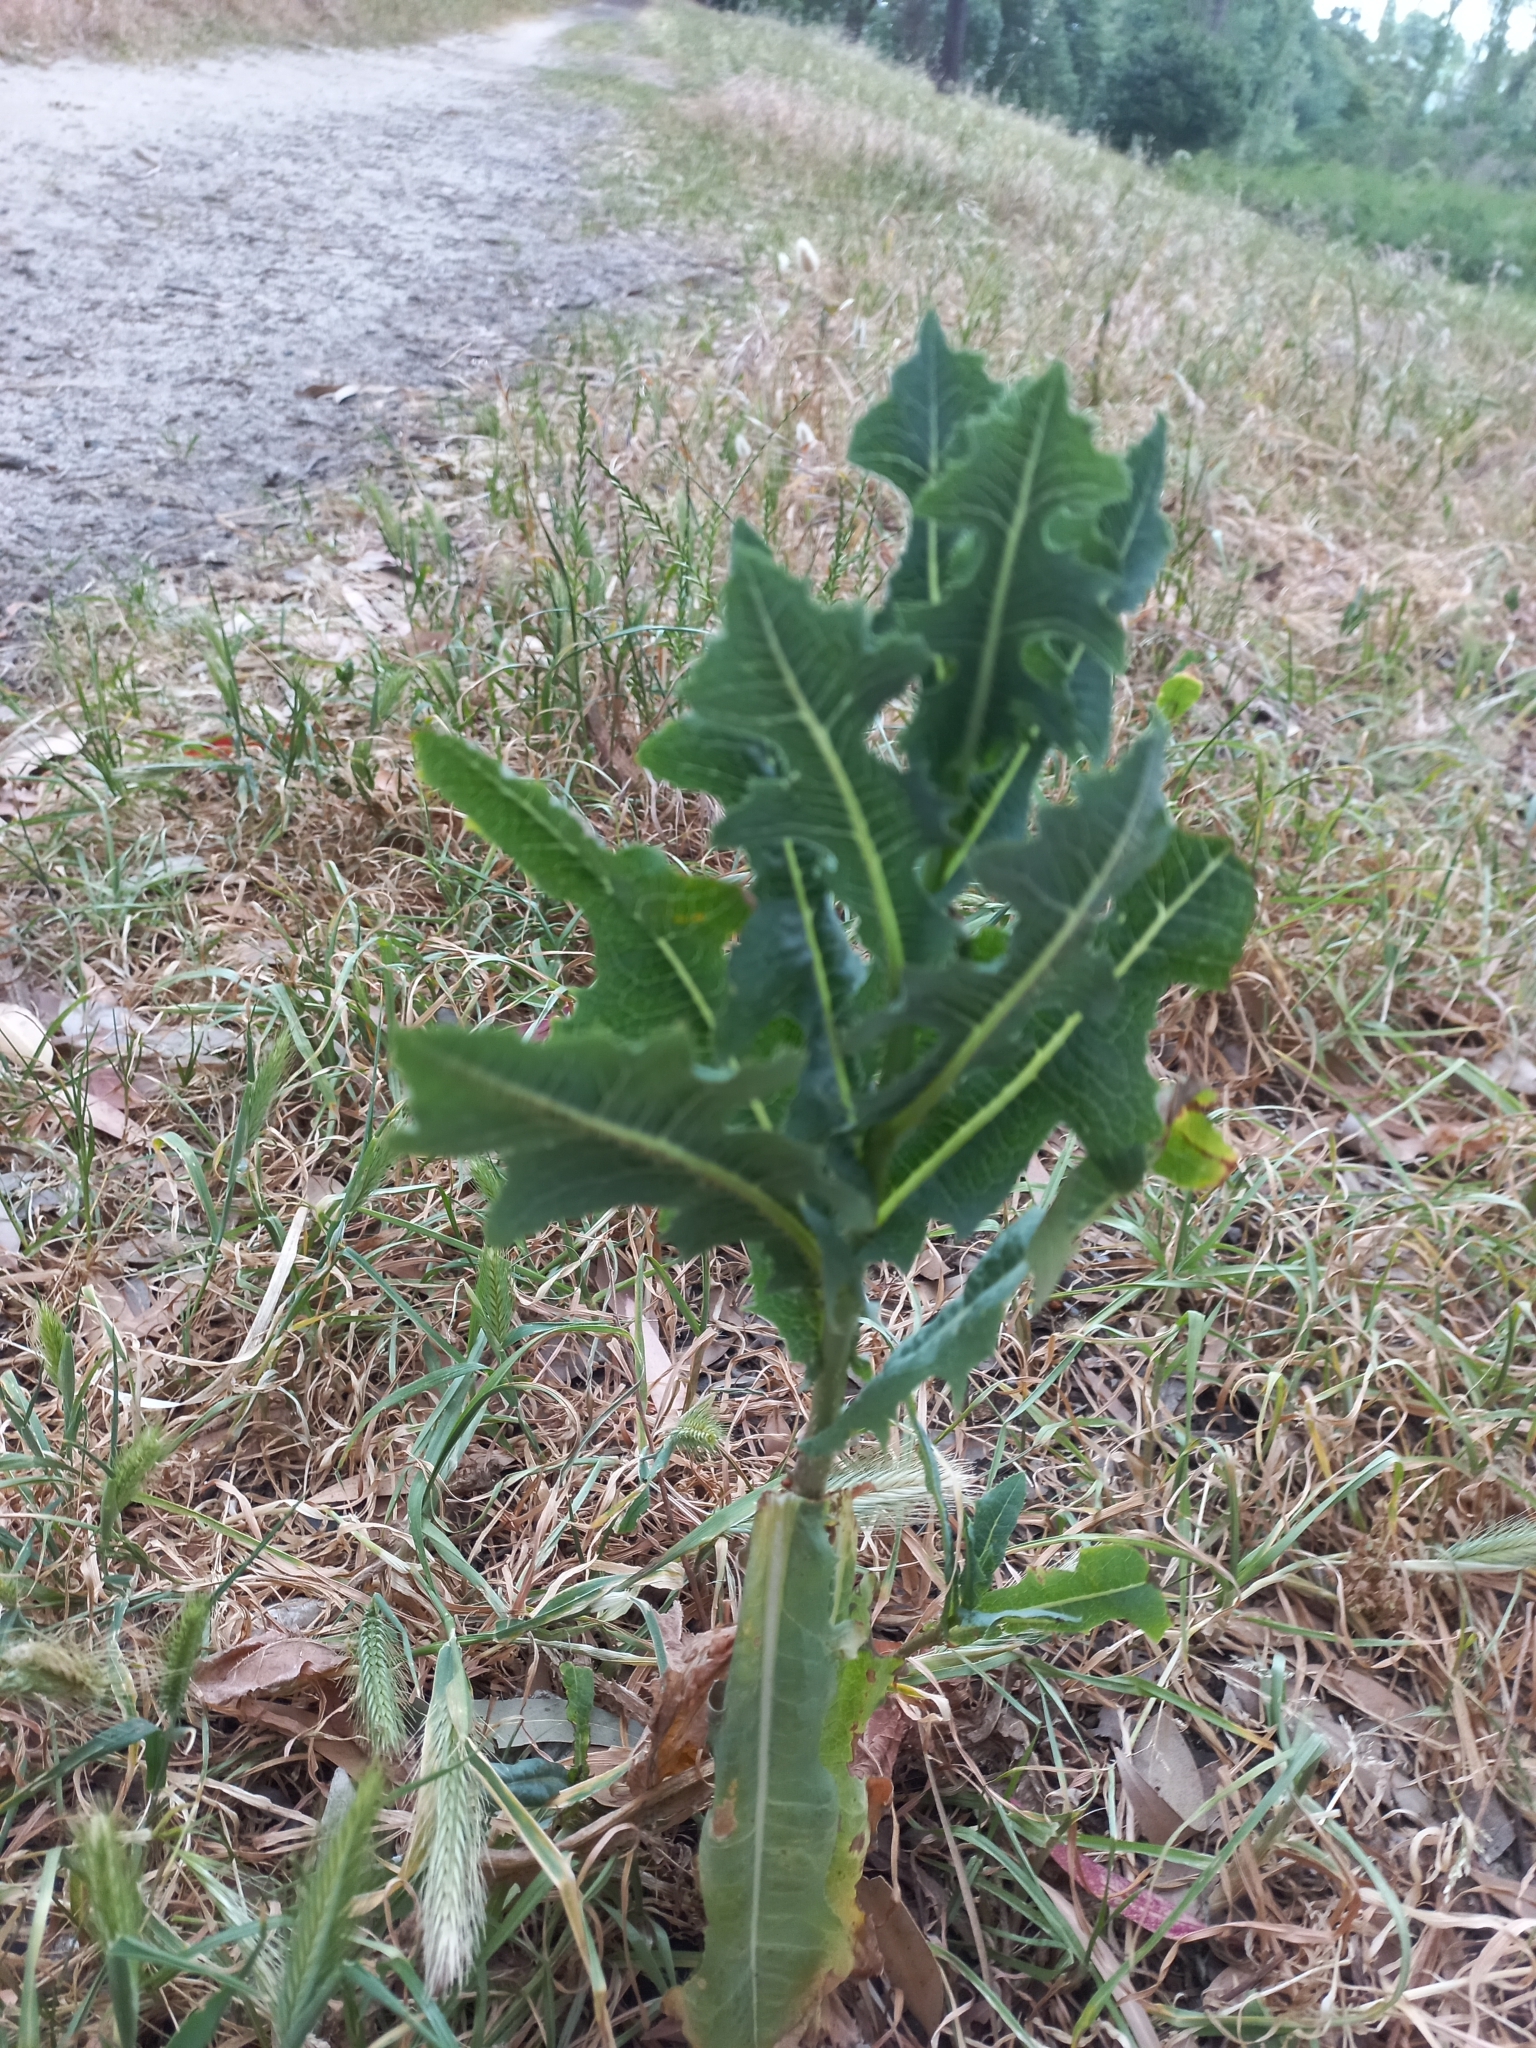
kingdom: Plantae
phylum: Tracheophyta
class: Magnoliopsida
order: Asterales
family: Asteraceae
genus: Lactuca
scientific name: Lactuca serriola
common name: Prickly lettuce
